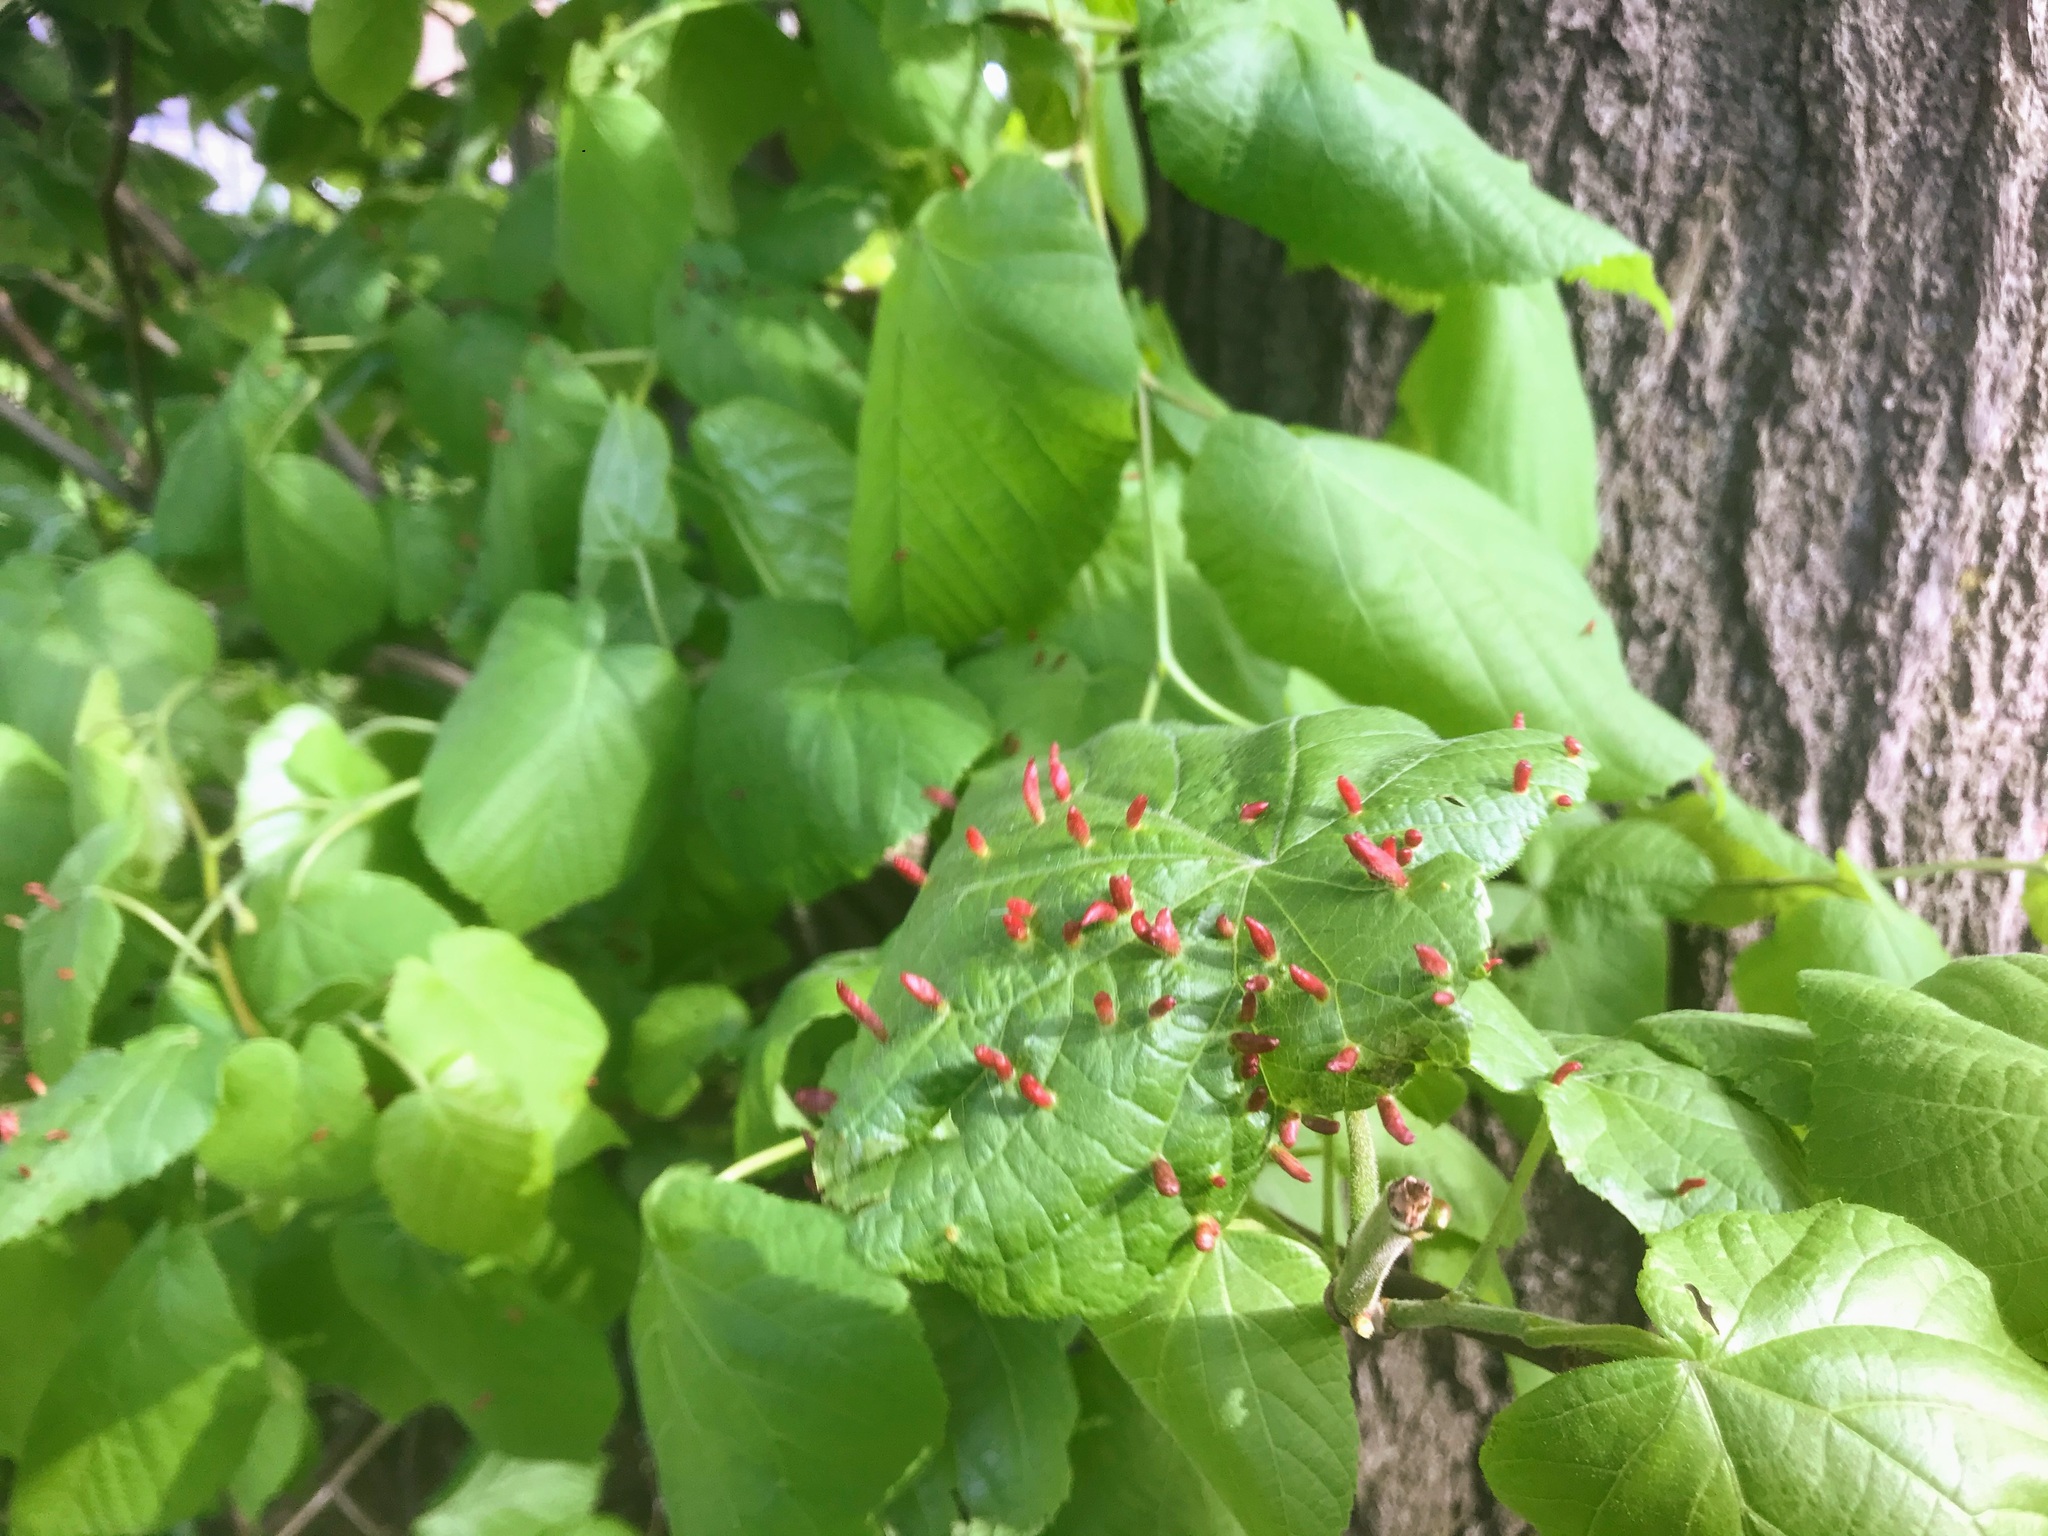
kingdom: Animalia
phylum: Arthropoda
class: Arachnida
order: Trombidiformes
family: Eriophyidae
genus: Eriophyes
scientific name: Eriophyes tiliae
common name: Red nail gall mite
